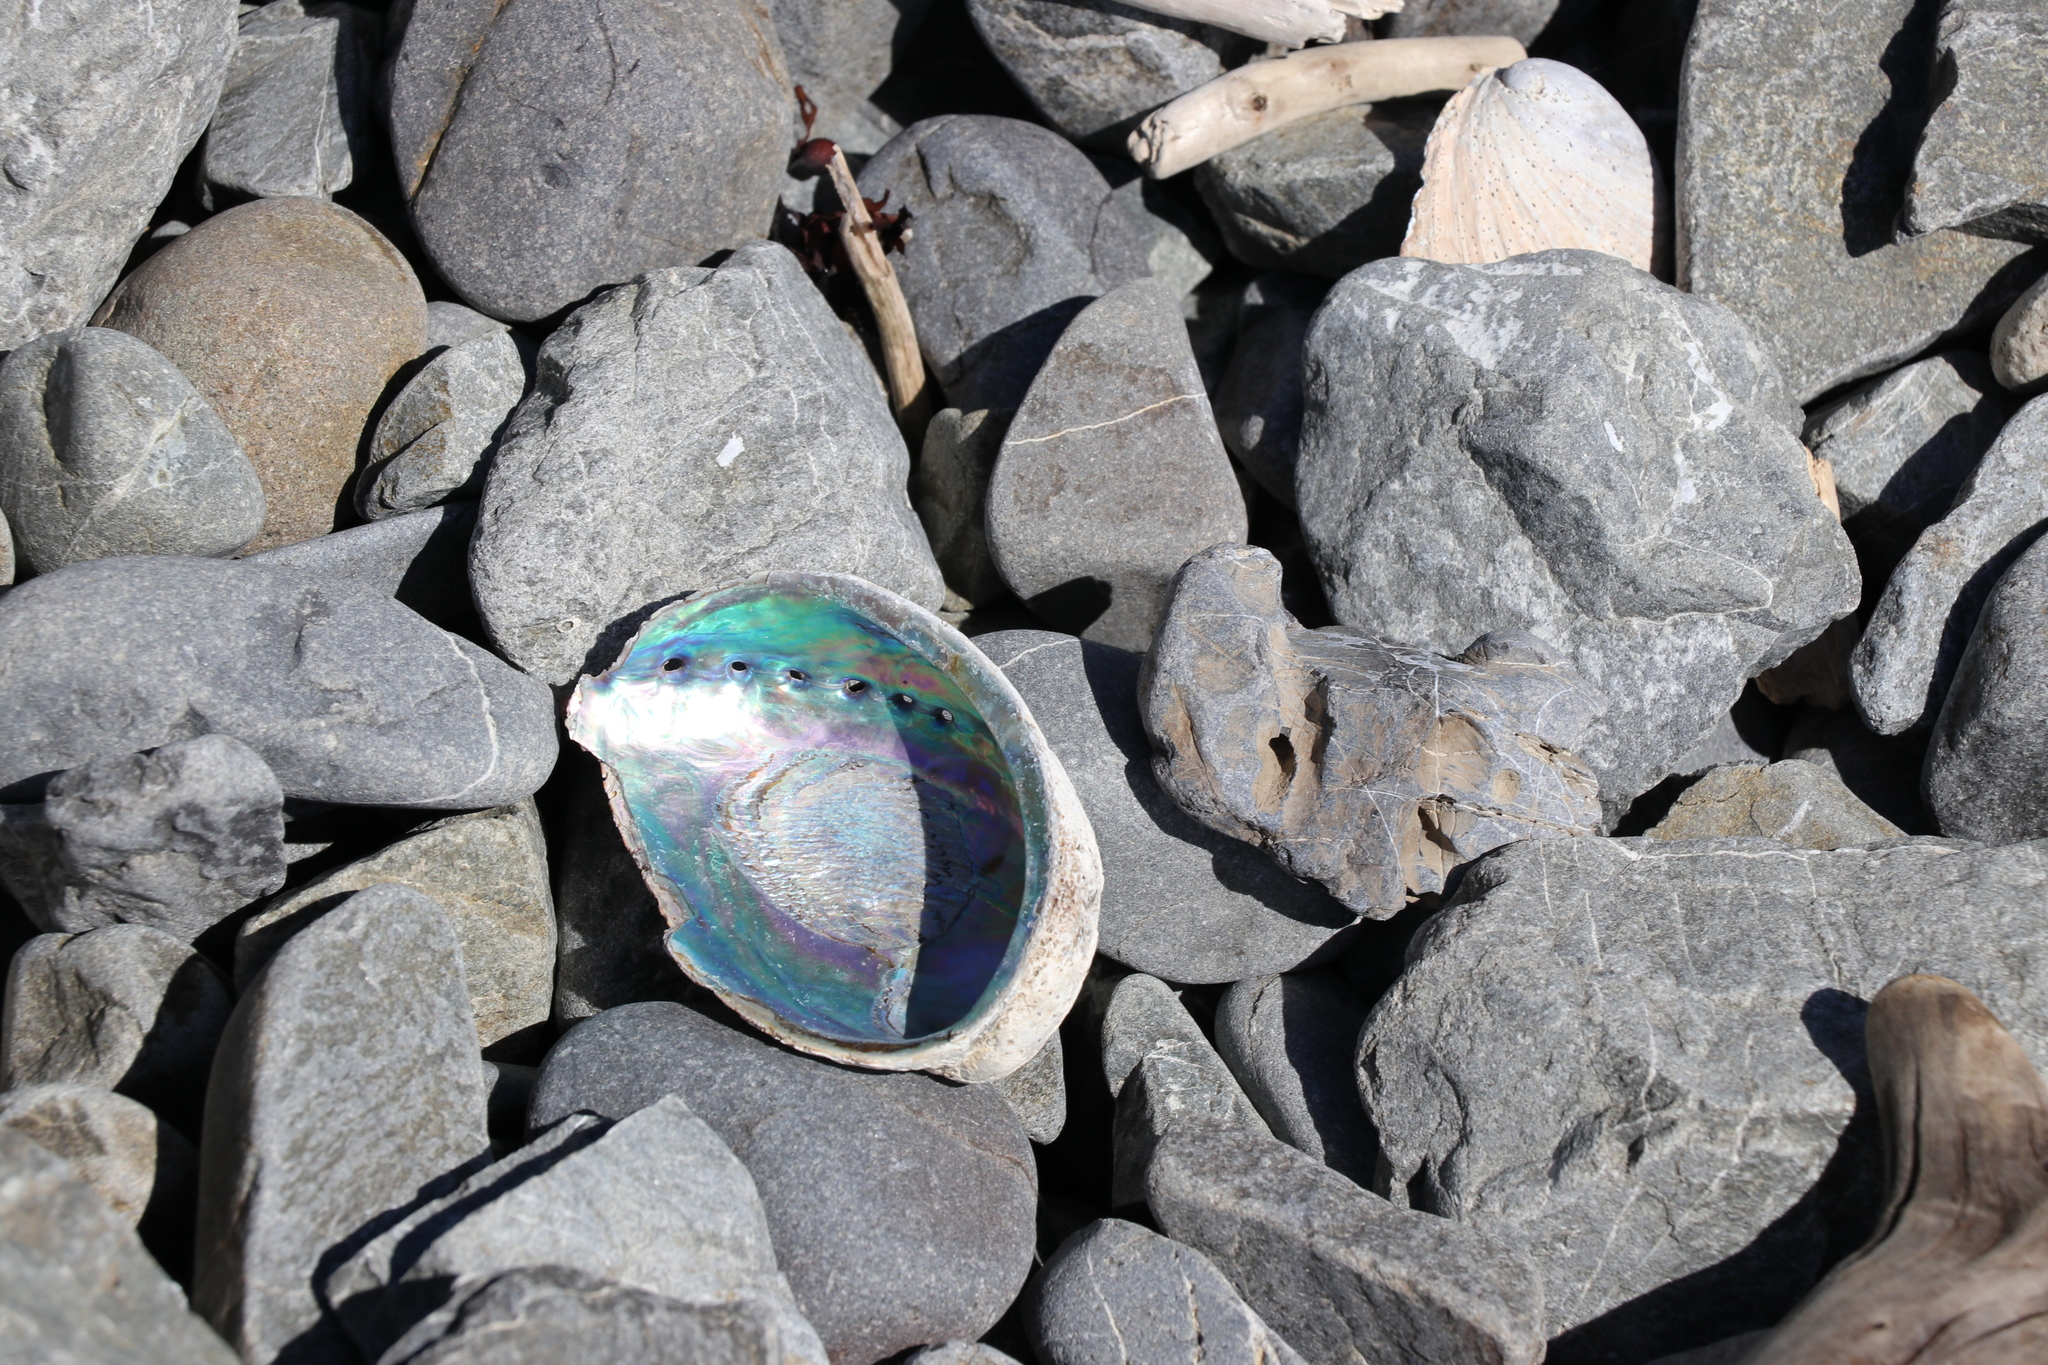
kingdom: Animalia
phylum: Mollusca
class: Gastropoda
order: Lepetellida
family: Haliotidae
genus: Haliotis
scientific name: Haliotis iris
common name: Abalone
